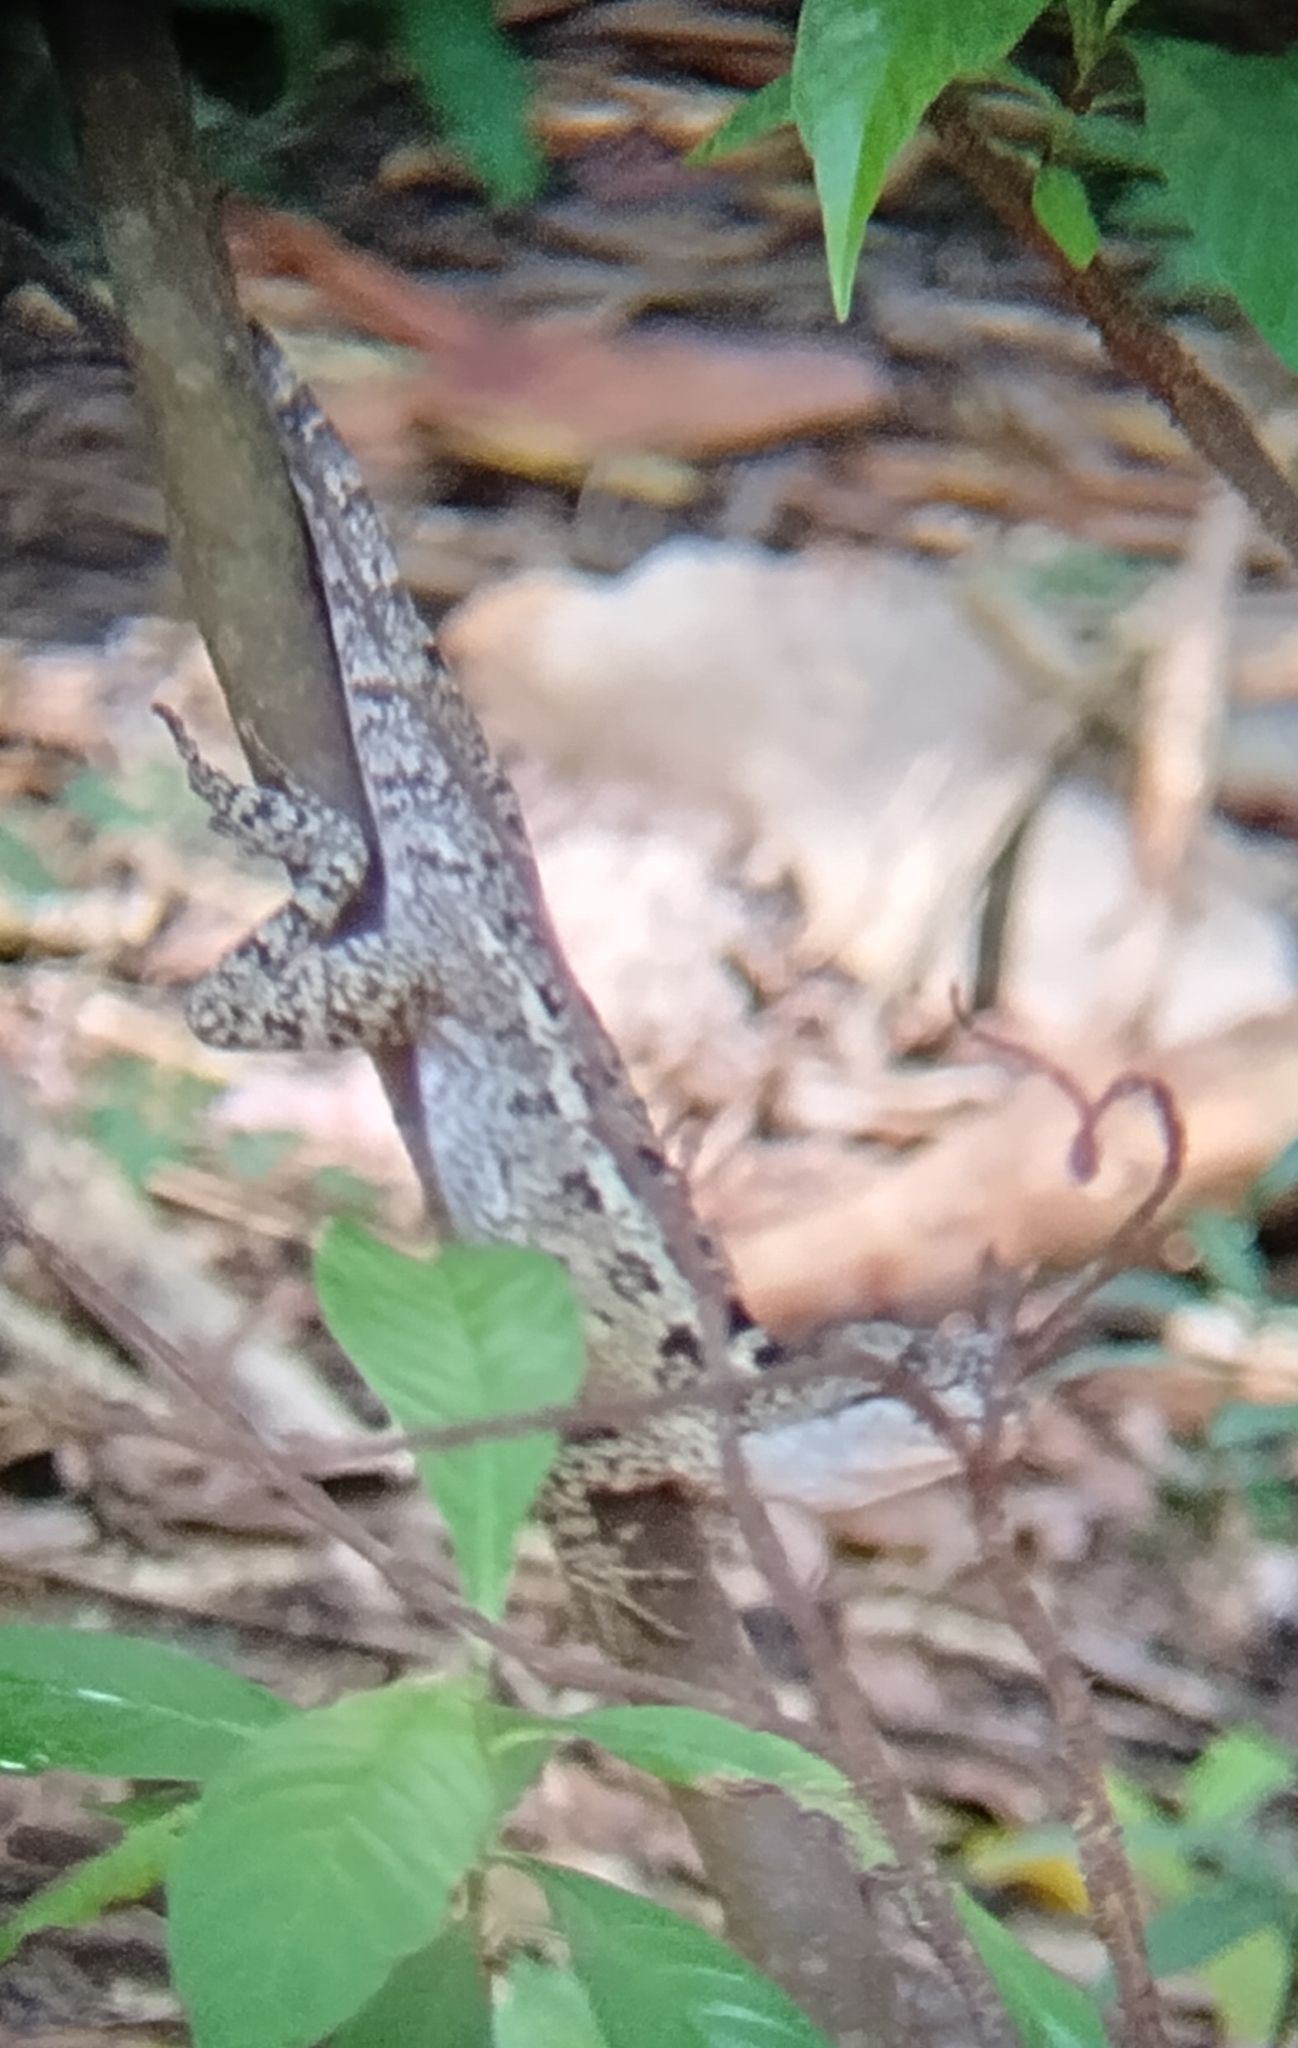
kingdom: Animalia
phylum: Chordata
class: Squamata
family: Corytophanidae
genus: Basiliscus
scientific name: Basiliscus vittatus
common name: Brown basilisk
